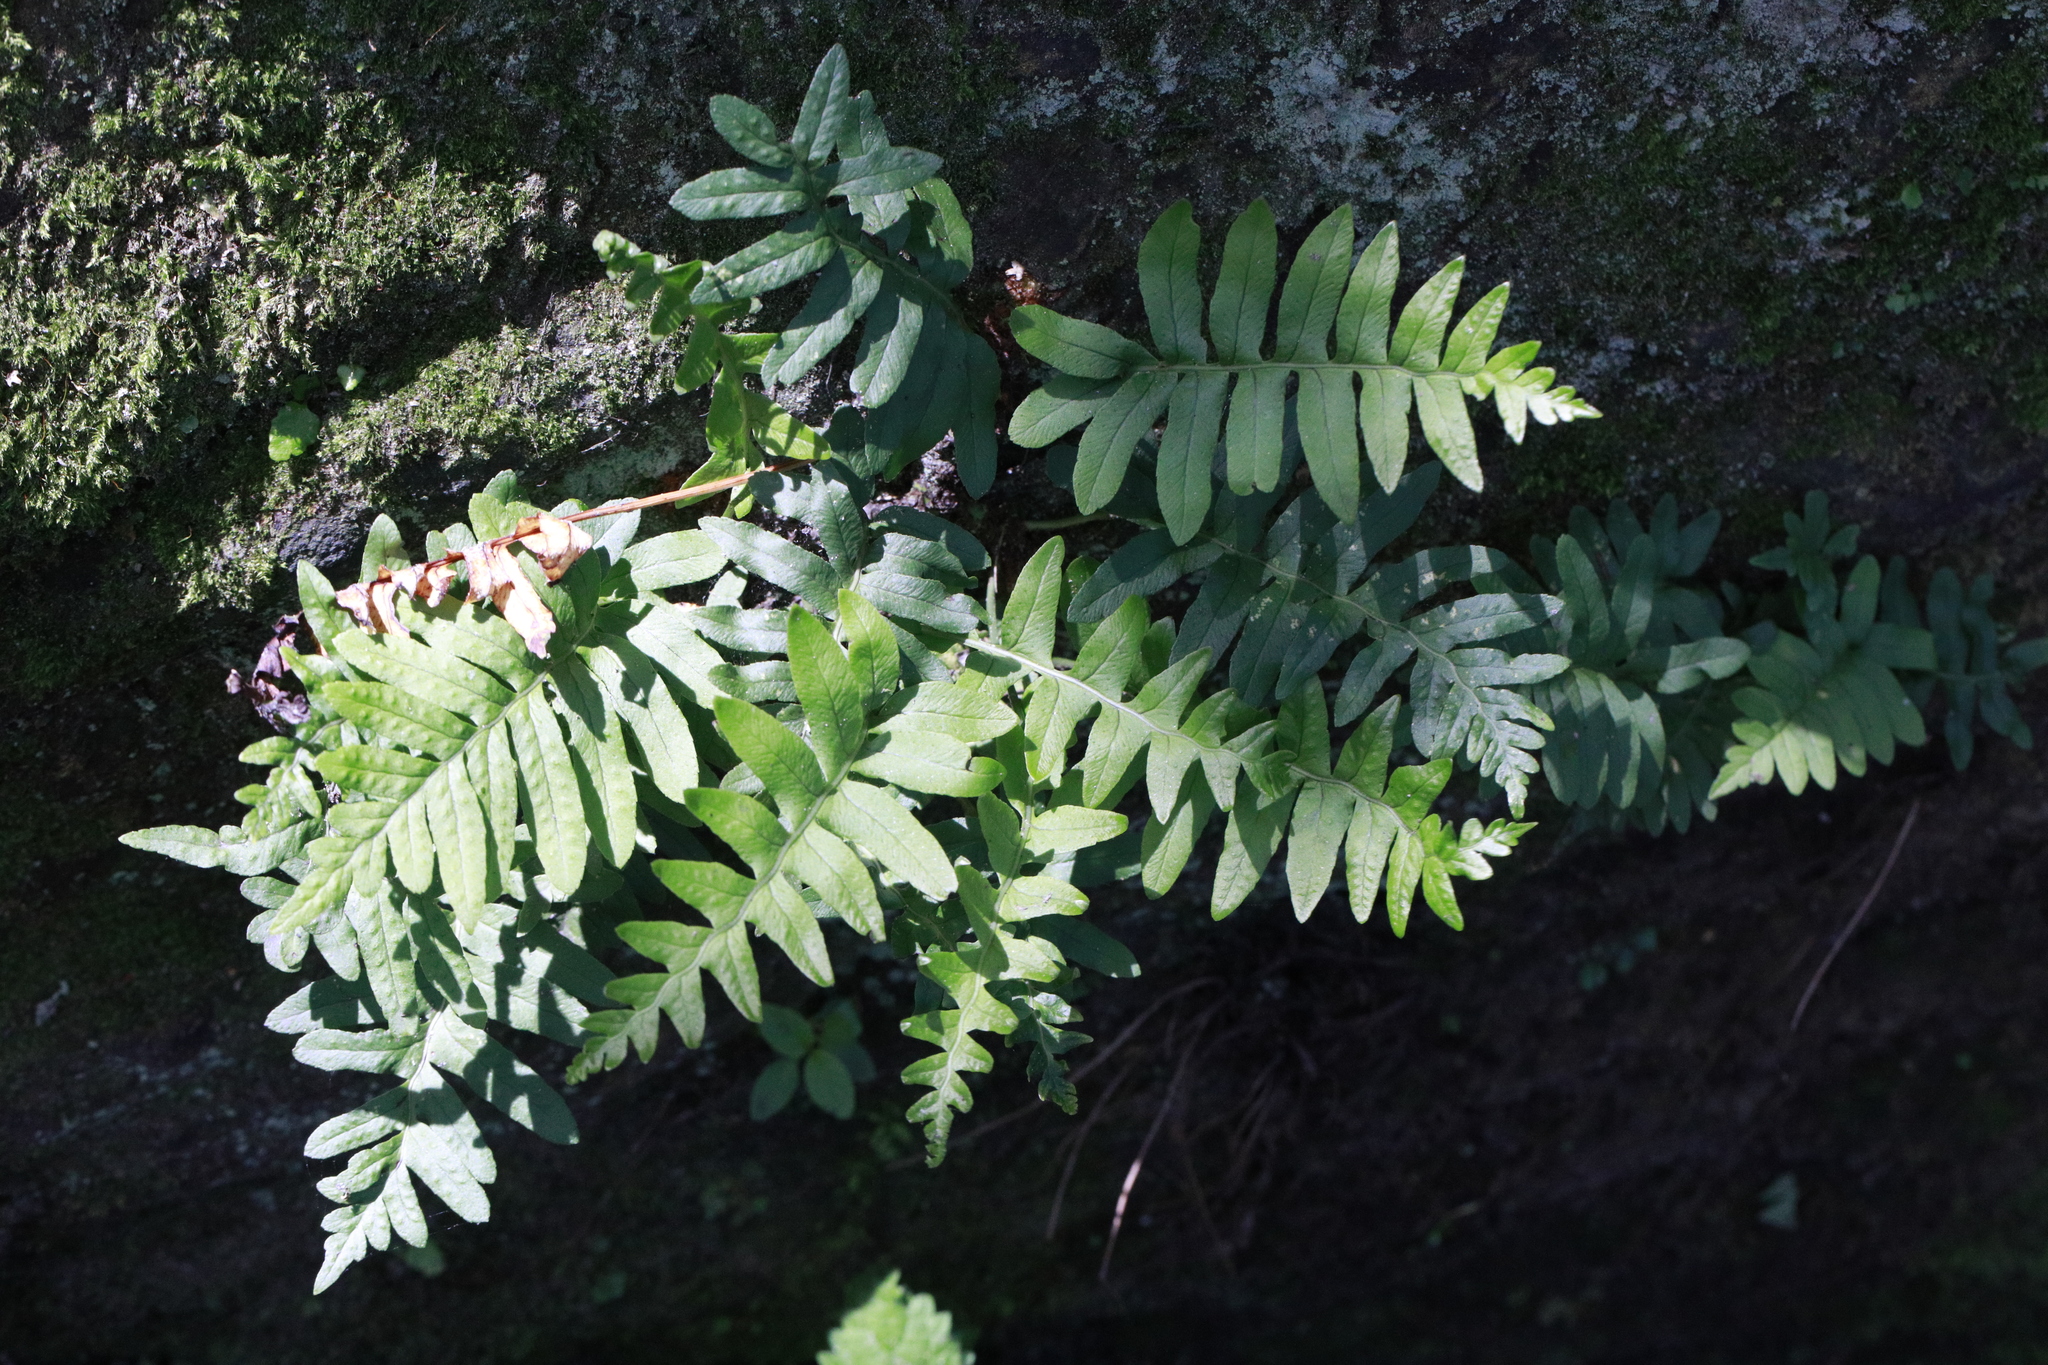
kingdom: Plantae
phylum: Tracheophyta
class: Polypodiopsida
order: Polypodiales
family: Polypodiaceae
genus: Polypodium
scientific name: Polypodium vulgare
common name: Common polypody
